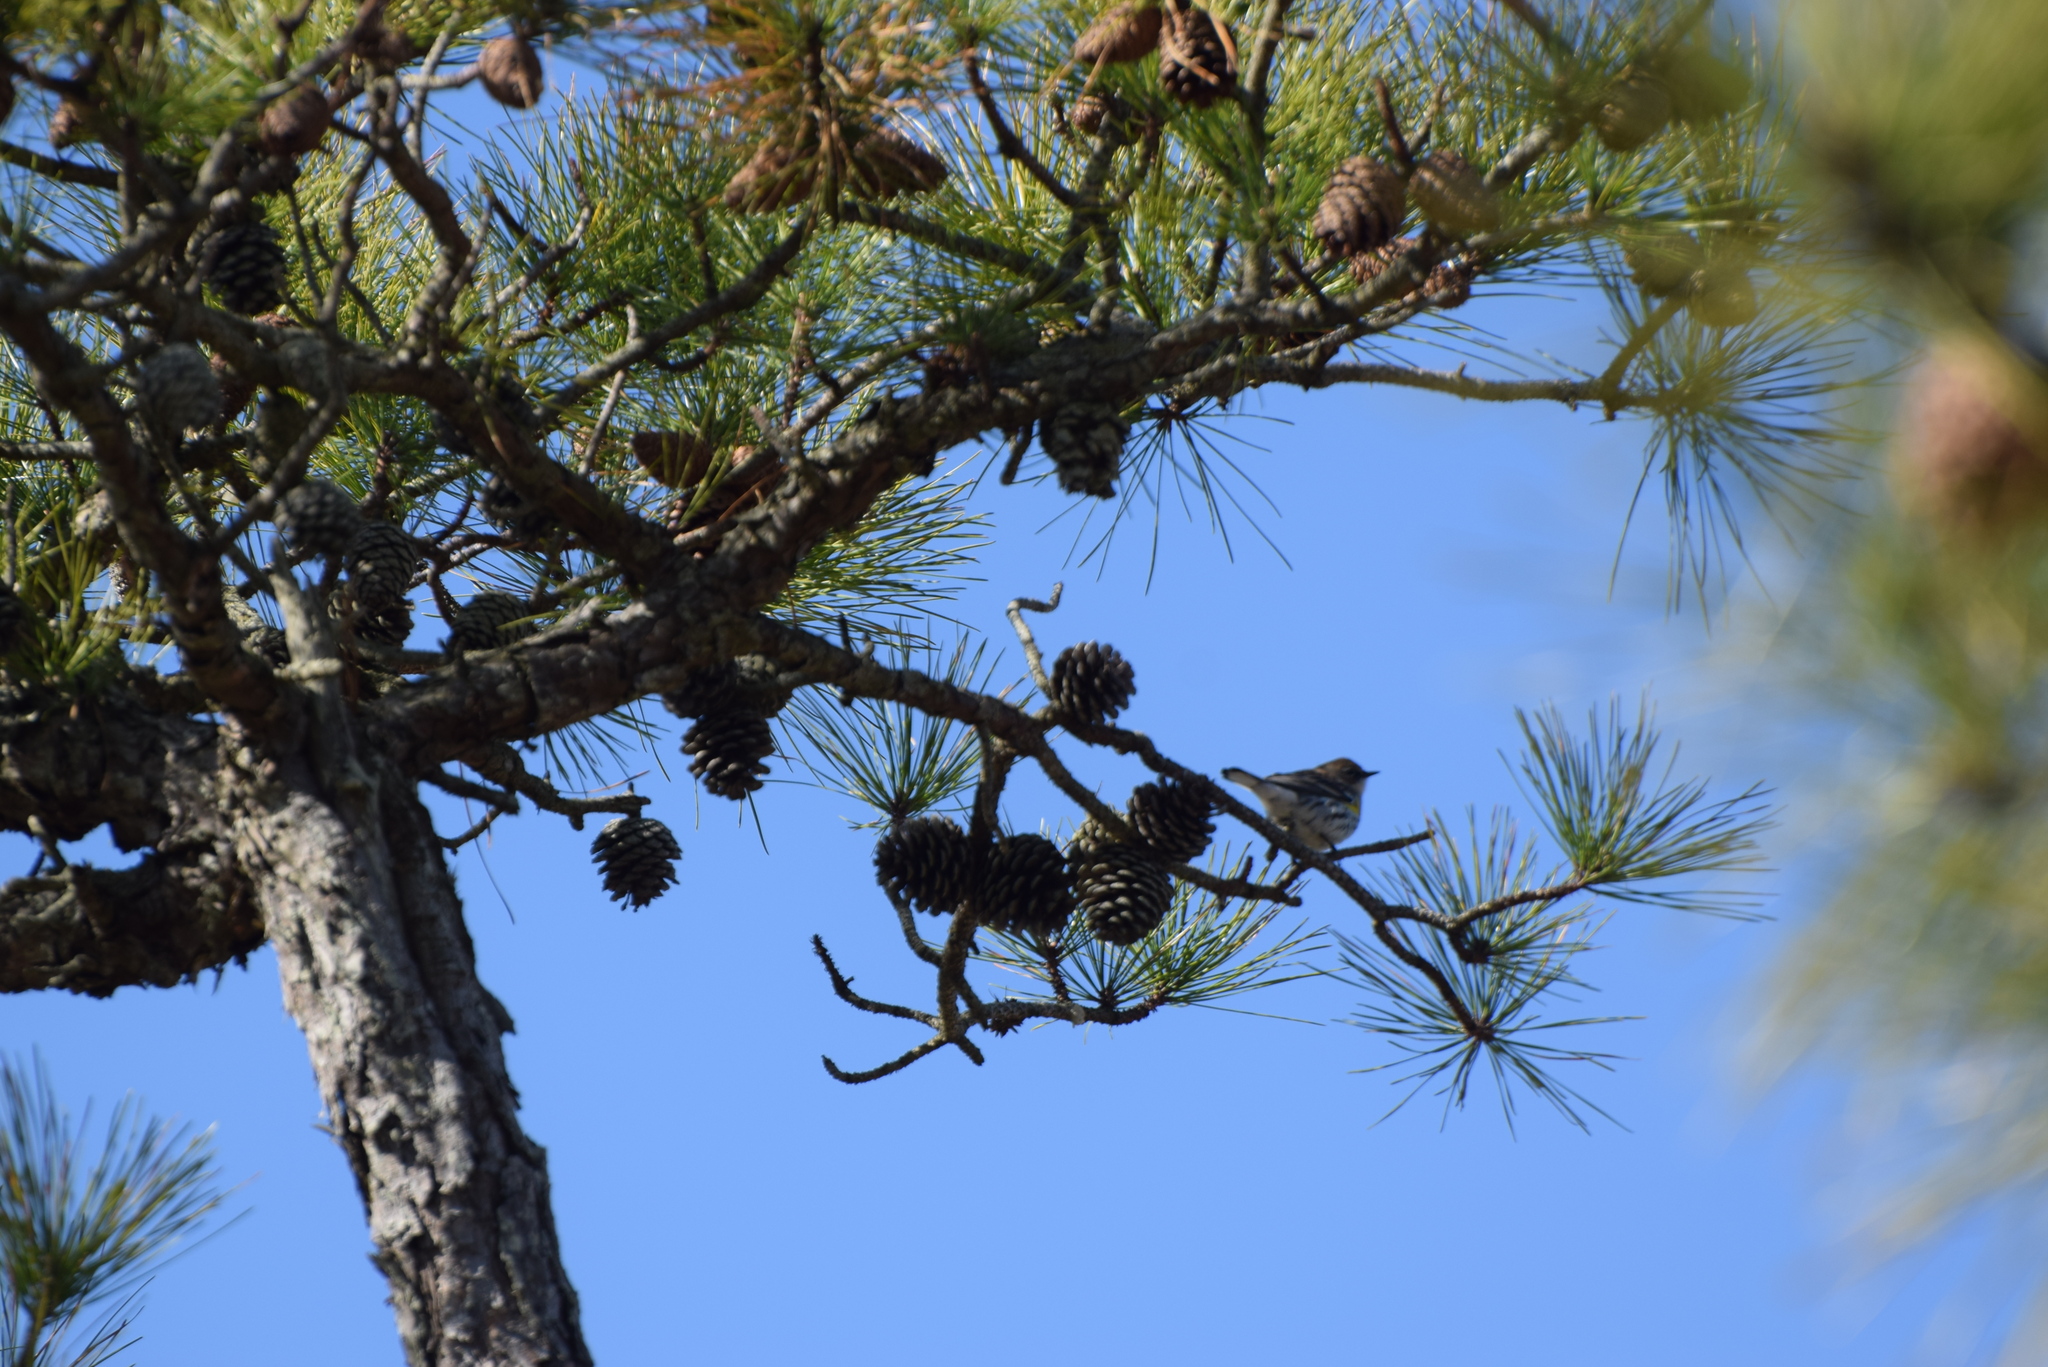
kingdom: Animalia
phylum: Chordata
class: Aves
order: Passeriformes
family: Parulidae
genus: Setophaga
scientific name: Setophaga coronata
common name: Myrtle warbler
